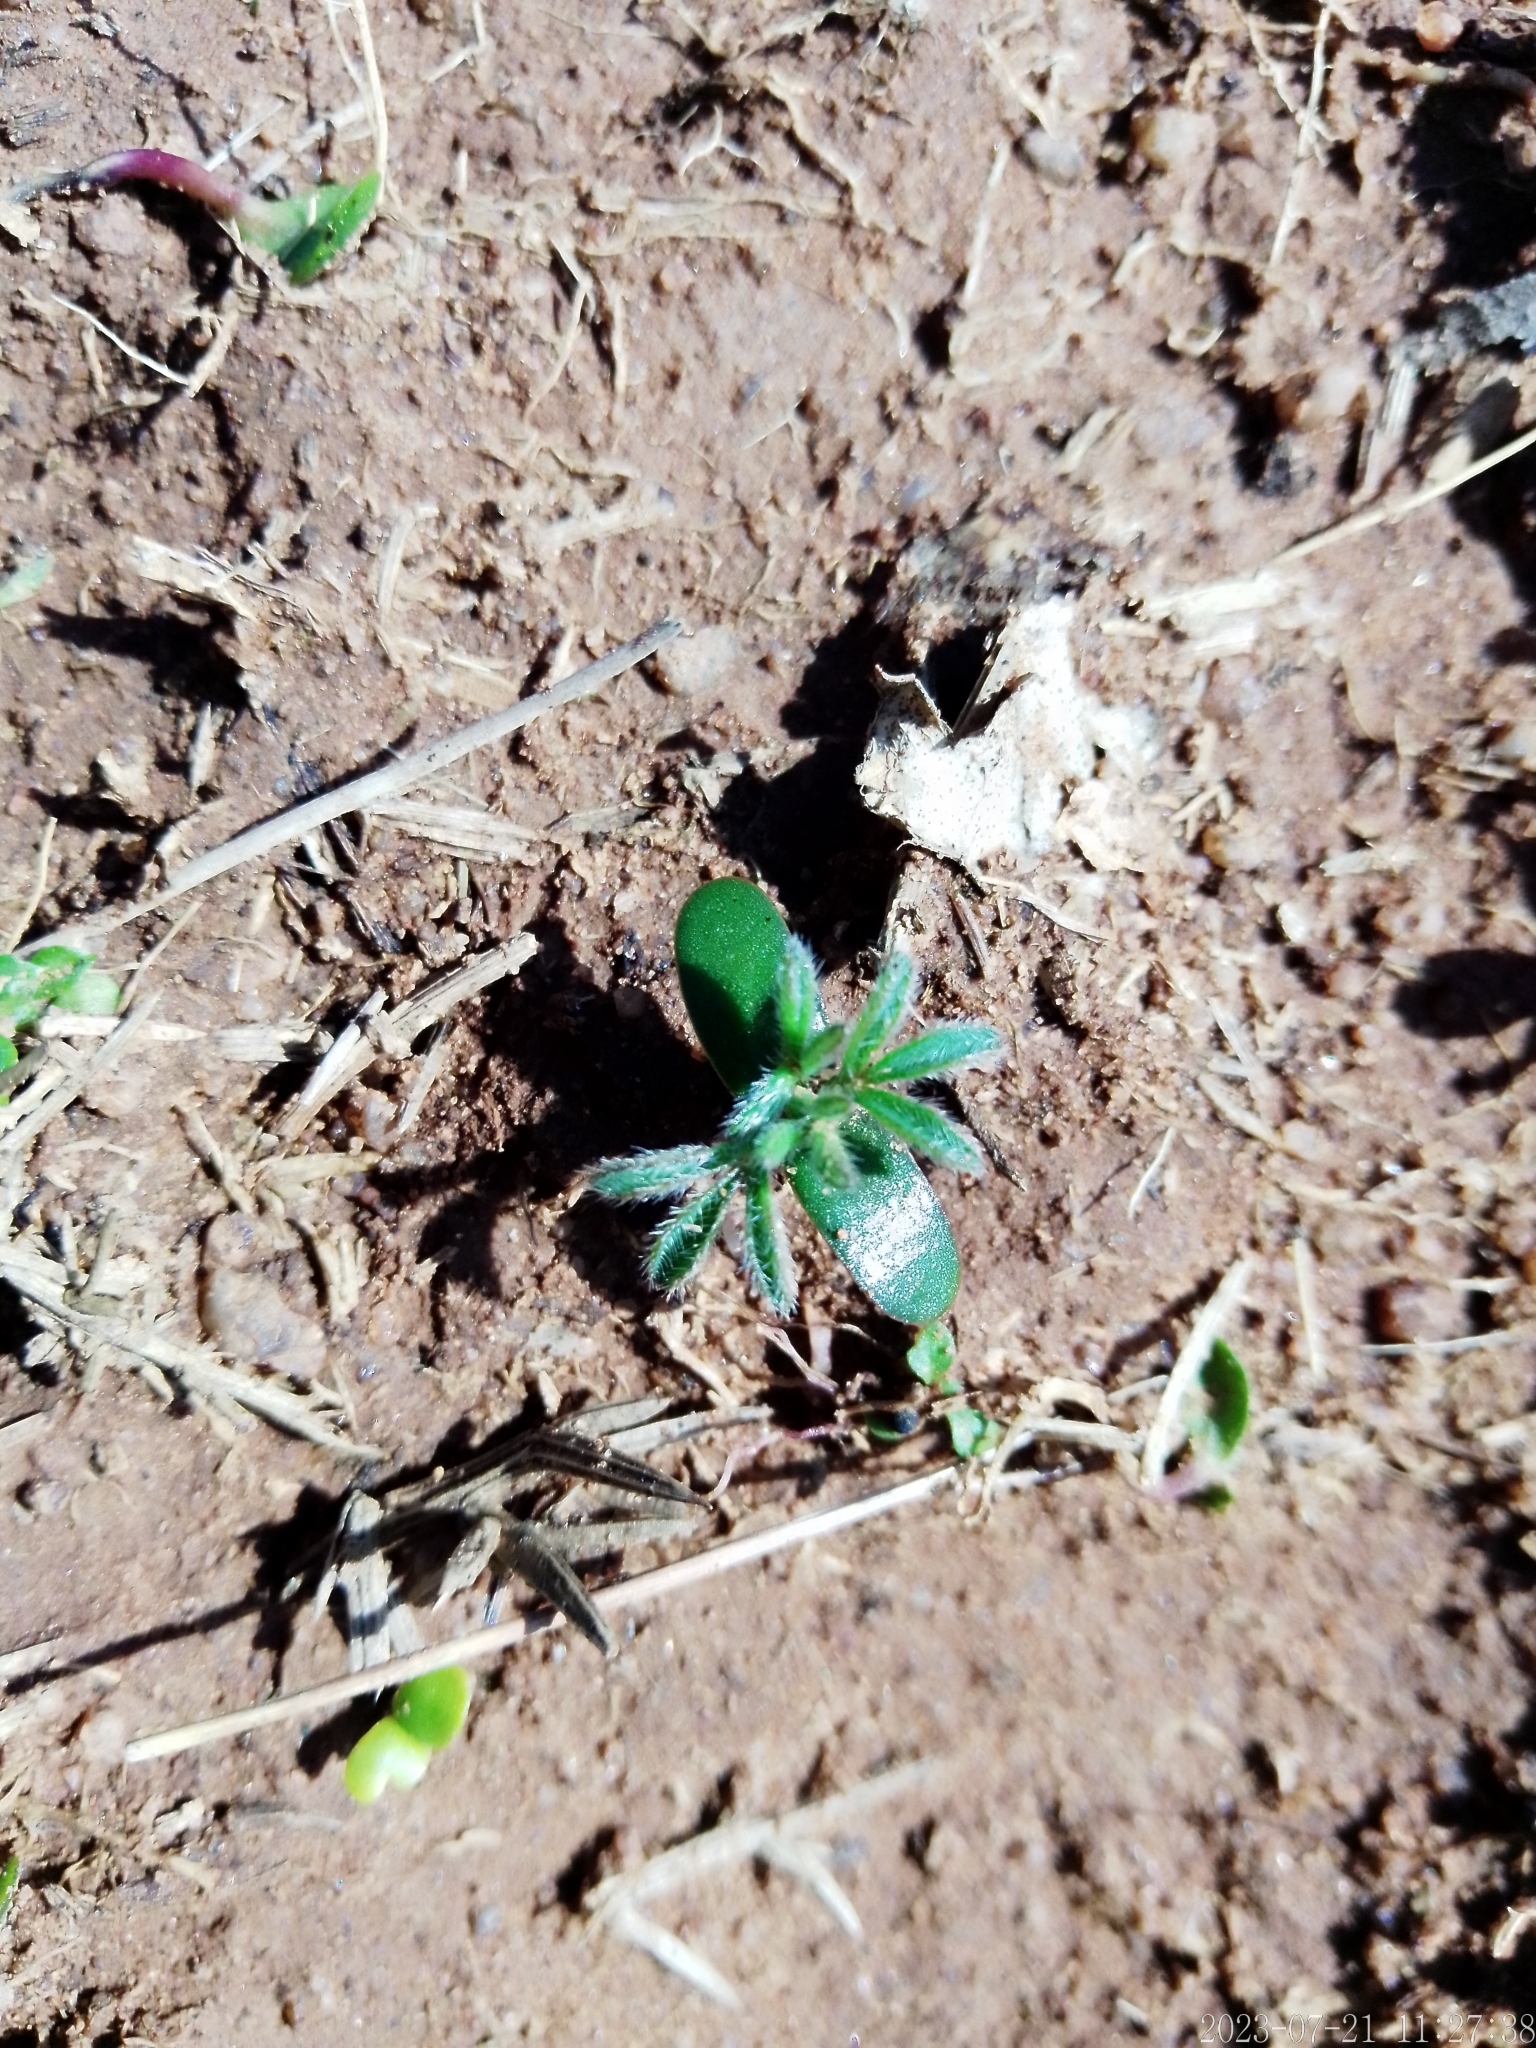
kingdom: Plantae
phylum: Tracheophyta
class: Magnoliopsida
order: Fabales
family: Fabaceae
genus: Ulex
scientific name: Ulex europaeus
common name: Common gorse
